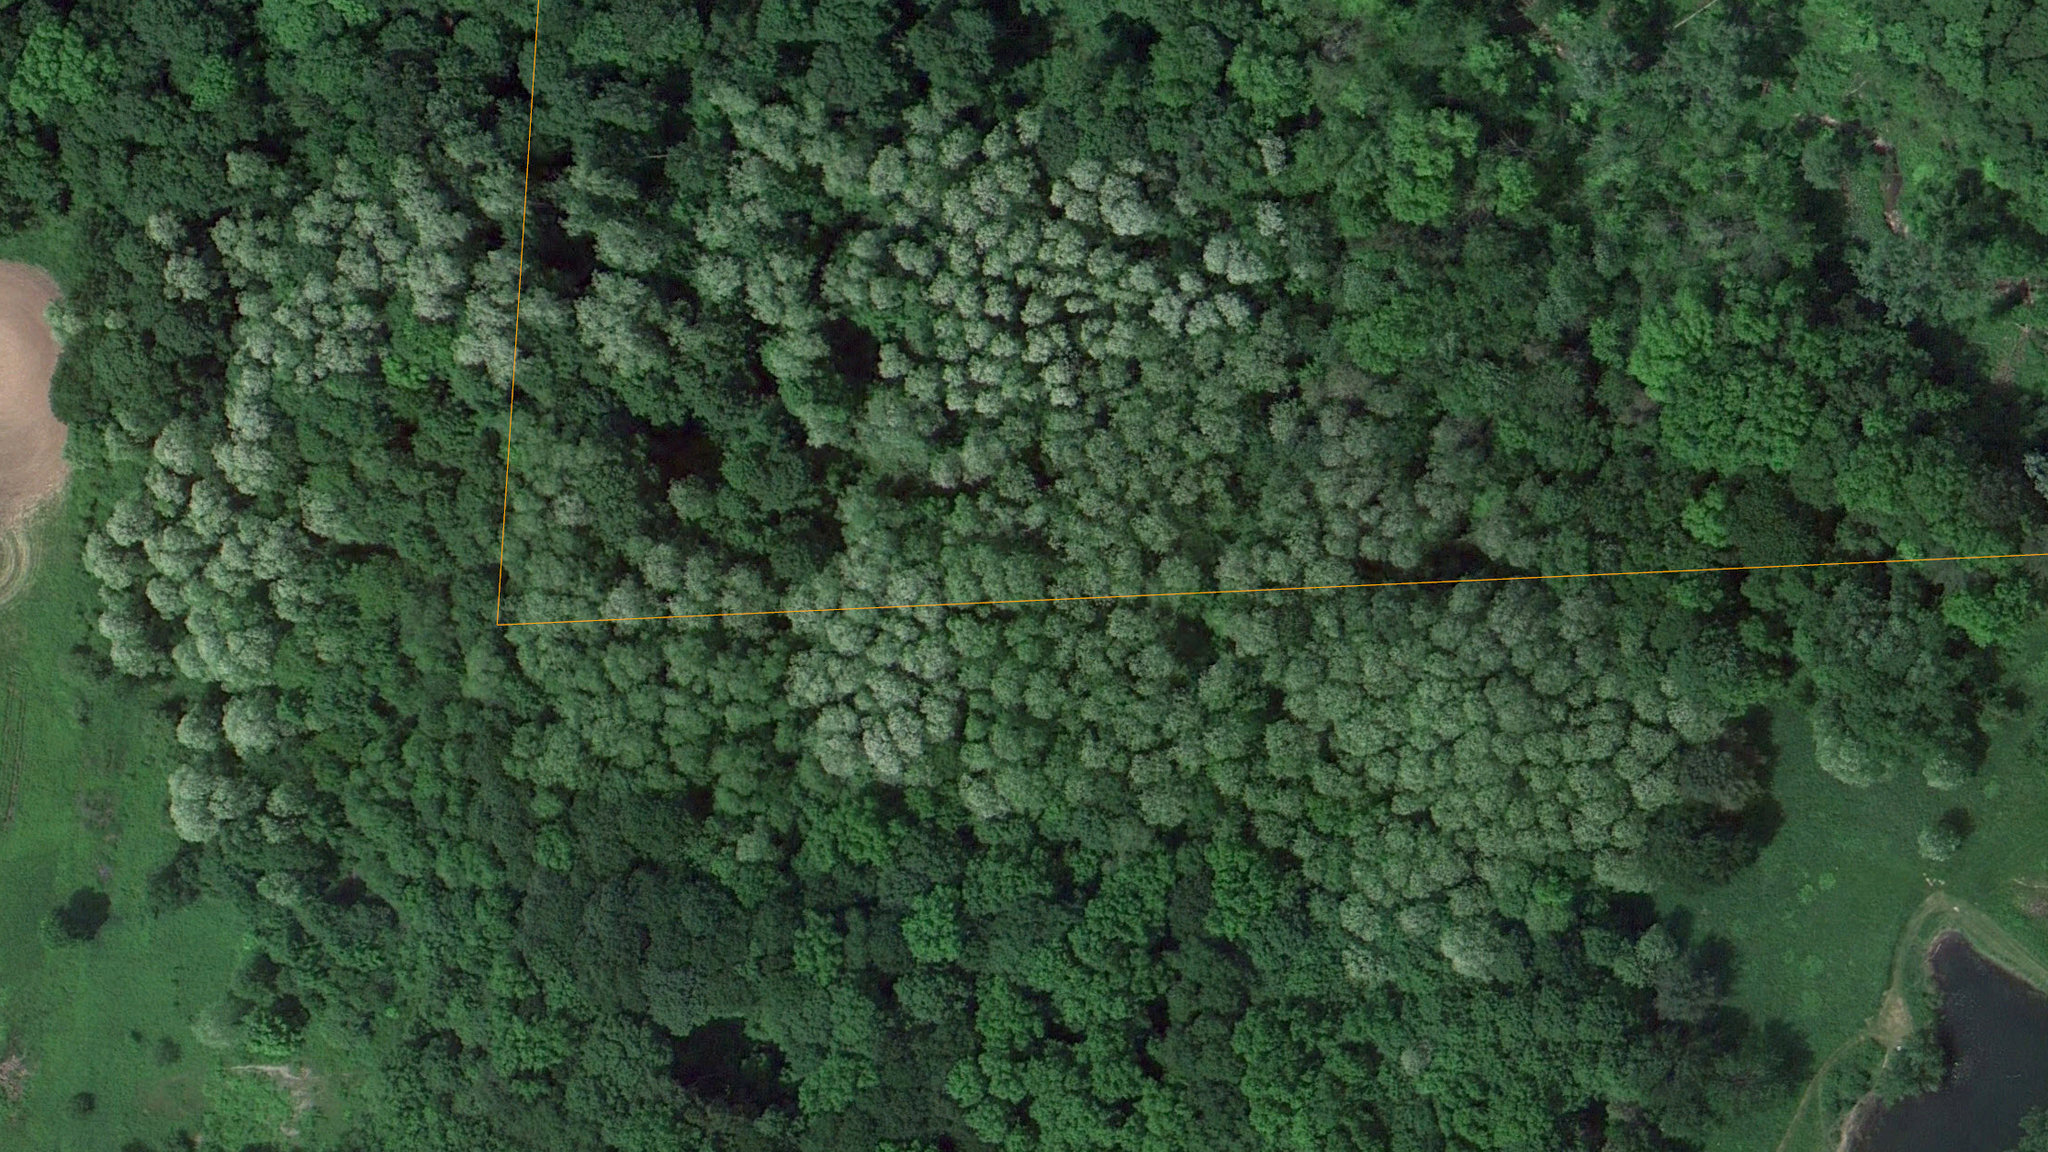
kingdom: Plantae
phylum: Tracheophyta
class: Magnoliopsida
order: Fabales
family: Fabaceae
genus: Robinia
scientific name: Robinia pseudoacacia
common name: Black locust
